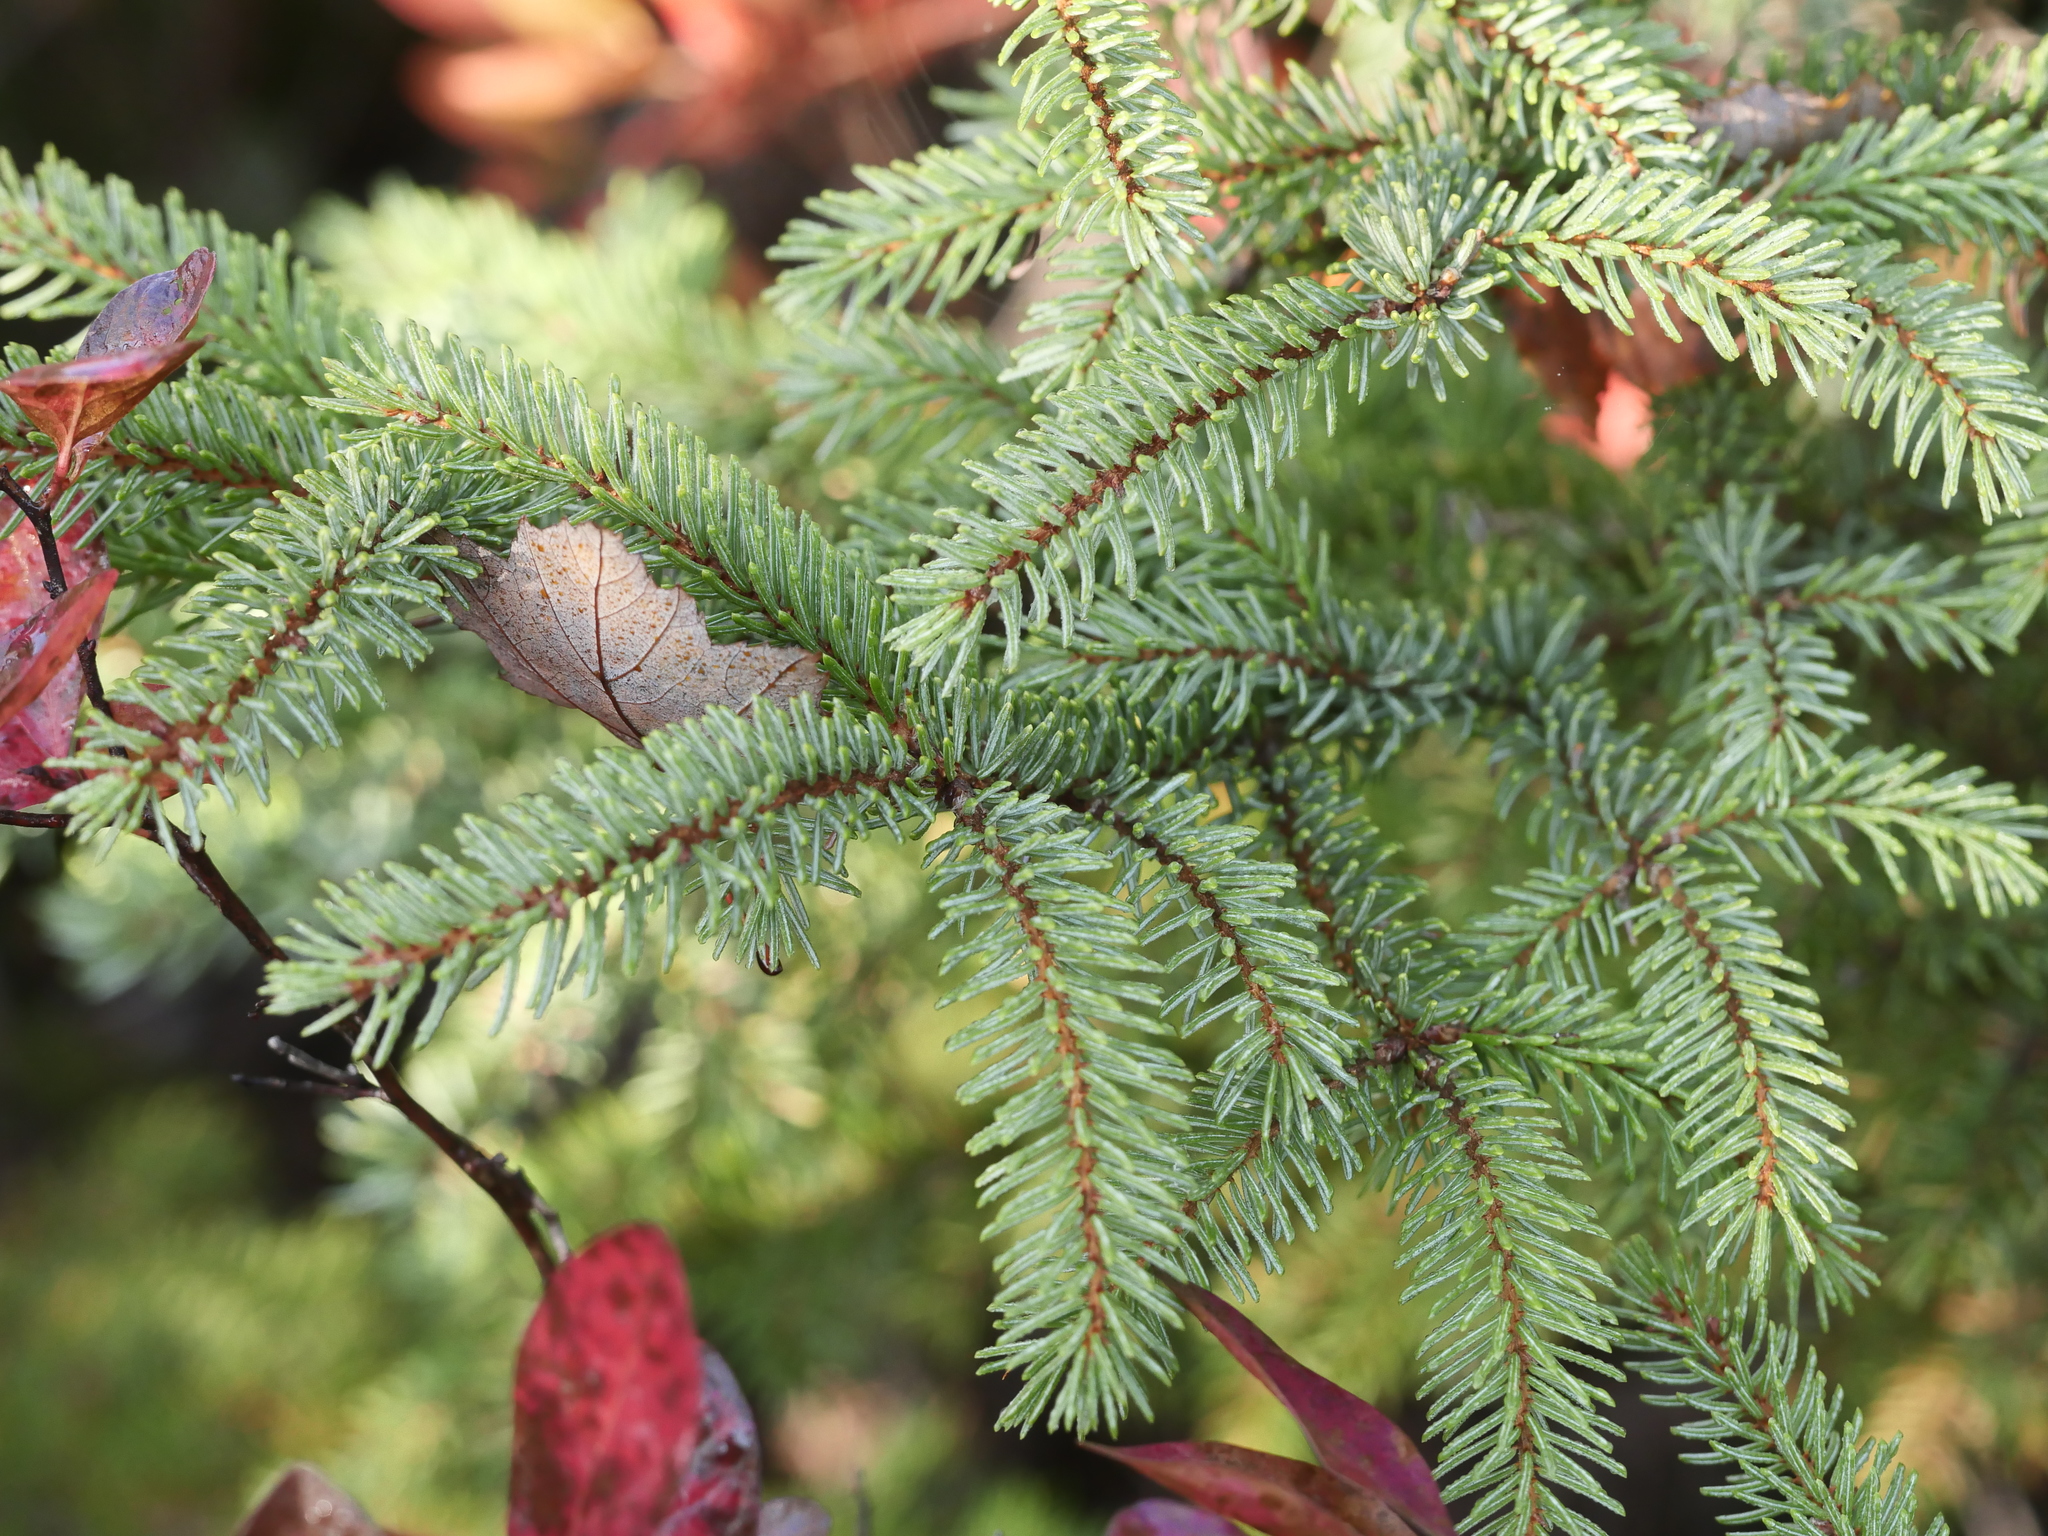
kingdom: Plantae
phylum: Tracheophyta
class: Pinopsida
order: Pinales
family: Pinaceae
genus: Picea
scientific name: Picea mariana
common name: Black spruce
